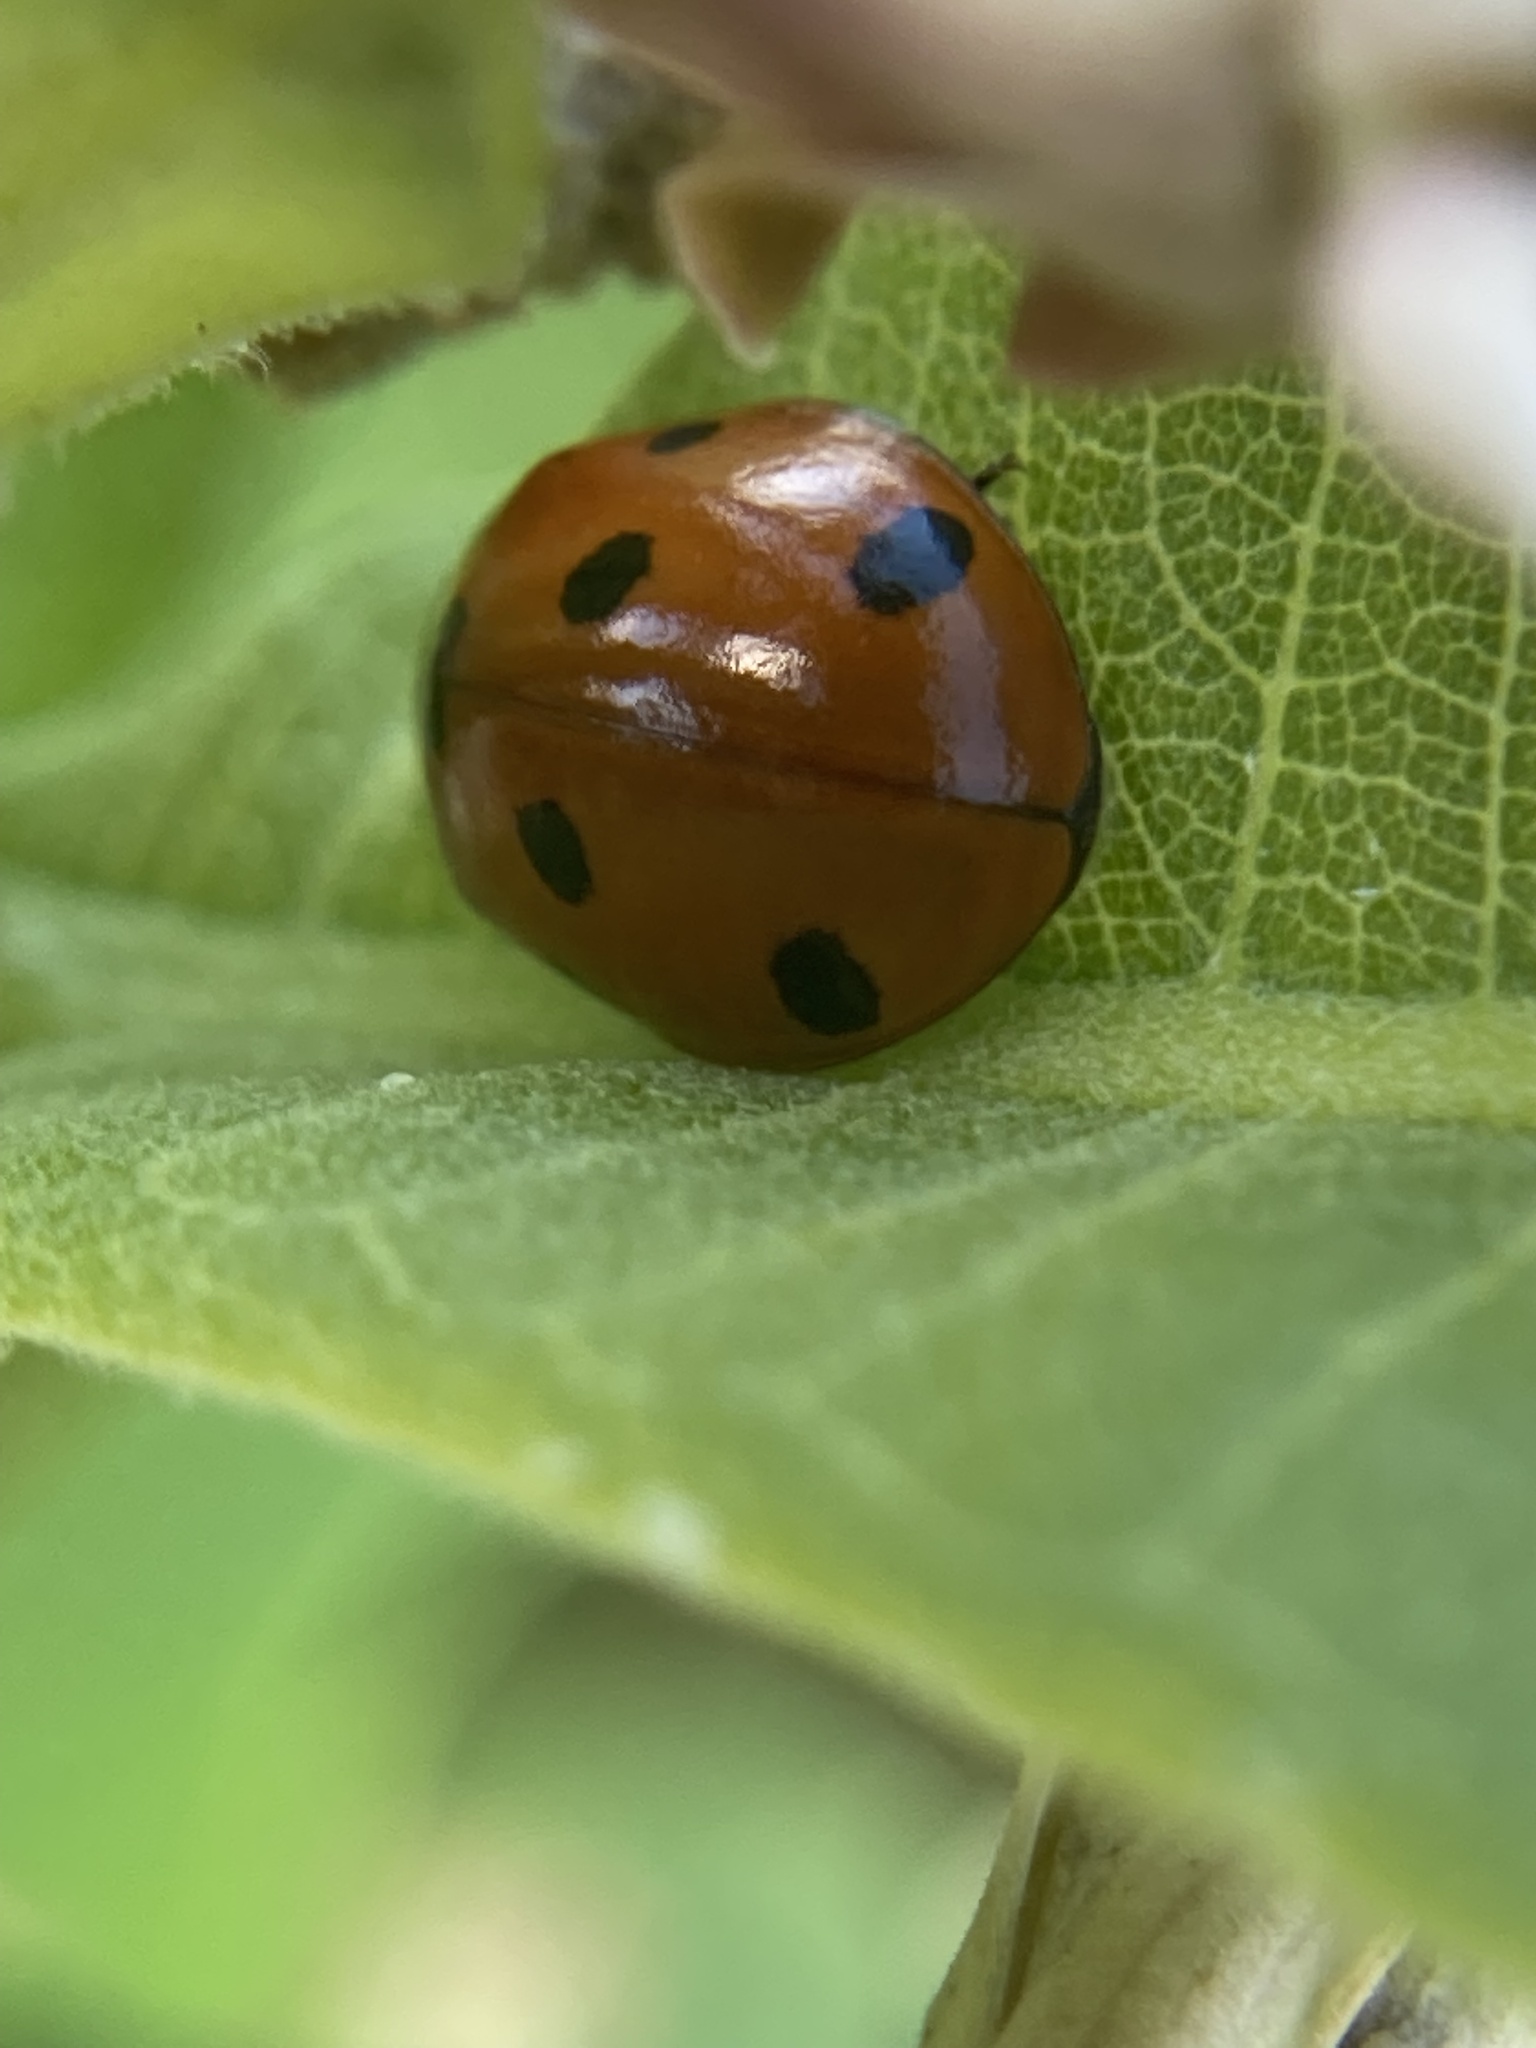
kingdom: Animalia
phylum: Arthropoda
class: Insecta
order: Coleoptera
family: Coccinellidae
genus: Coccinella
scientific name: Coccinella septempunctata
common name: Sevenspotted lady beetle
